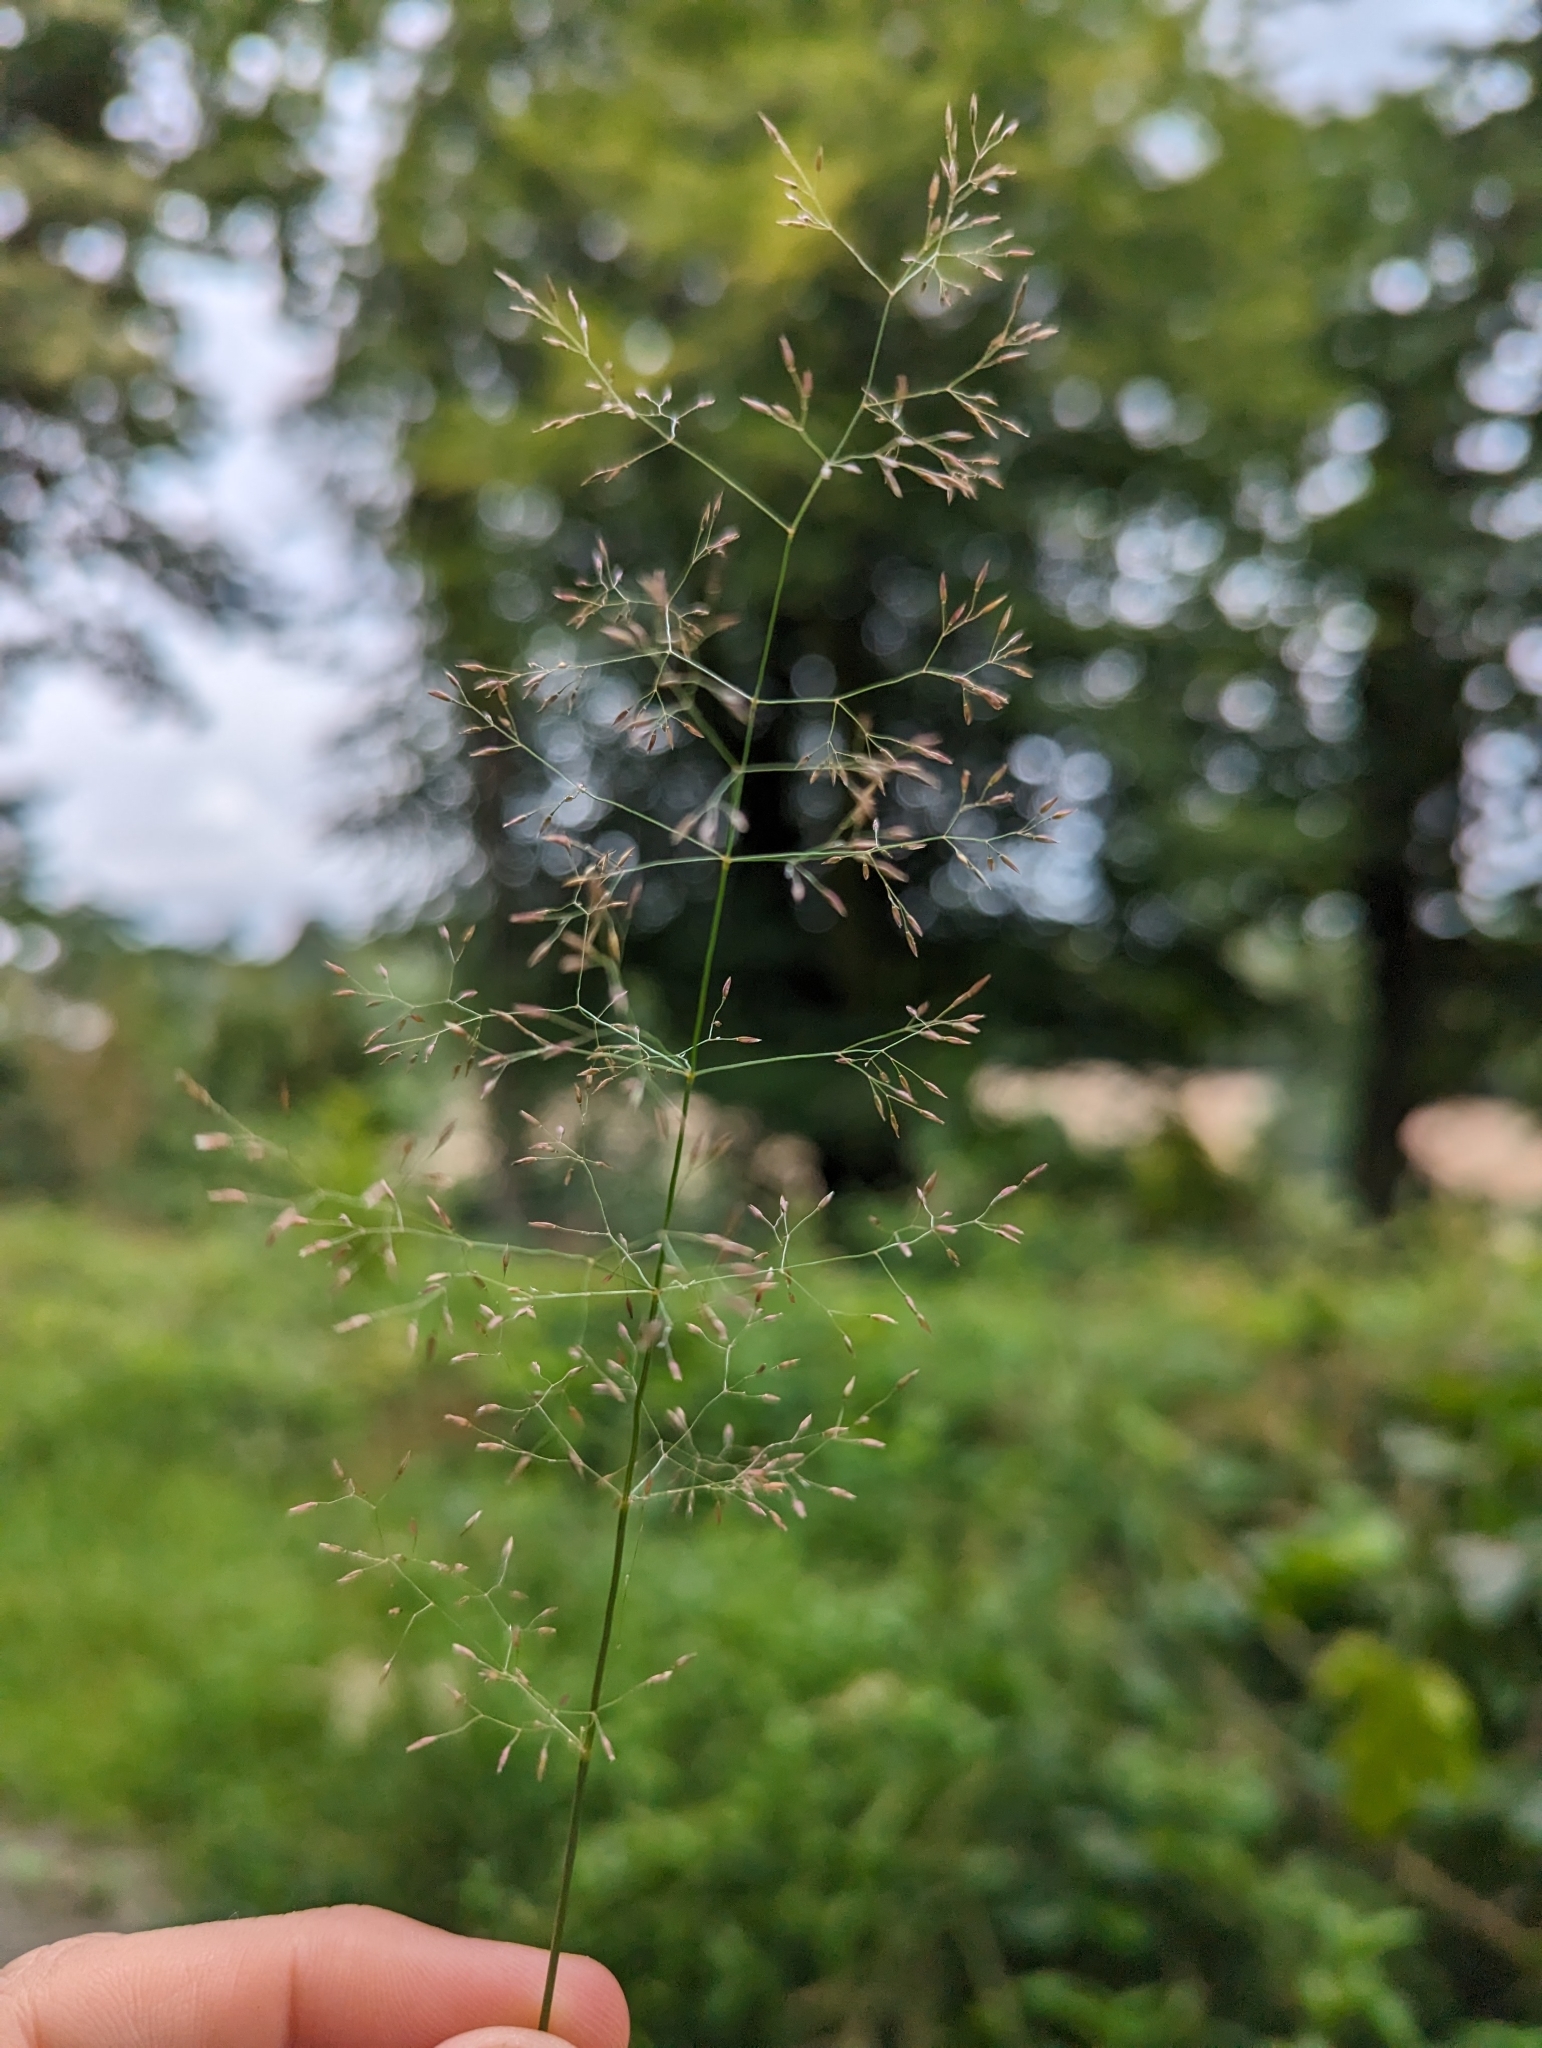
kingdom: Plantae
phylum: Tracheophyta
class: Liliopsida
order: Poales
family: Poaceae
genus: Agrostis
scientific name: Agrostis capillaris
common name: Colonial bentgrass
